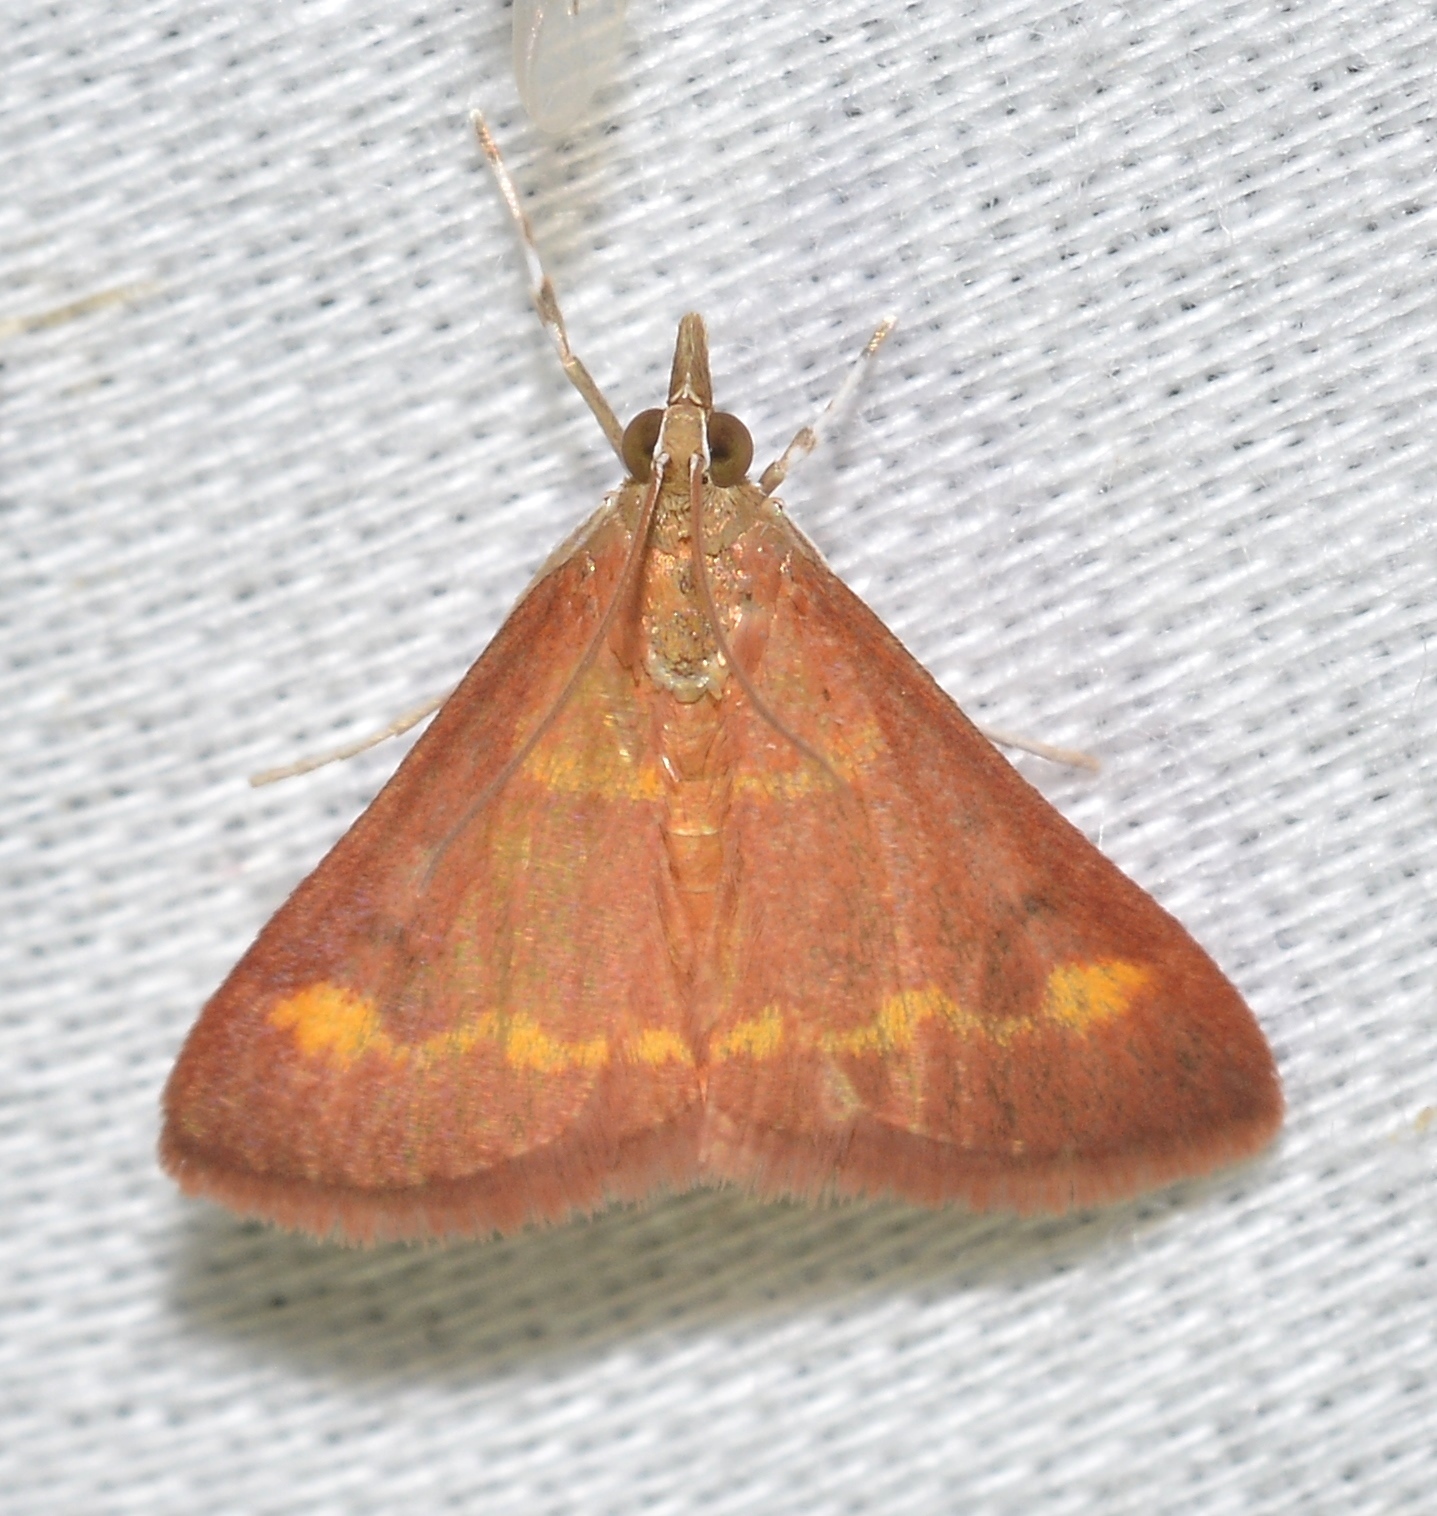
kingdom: Animalia
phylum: Arthropoda
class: Insecta
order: Lepidoptera
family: Crambidae
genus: Pyrausta
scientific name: Pyrausta pseuderosnealis
